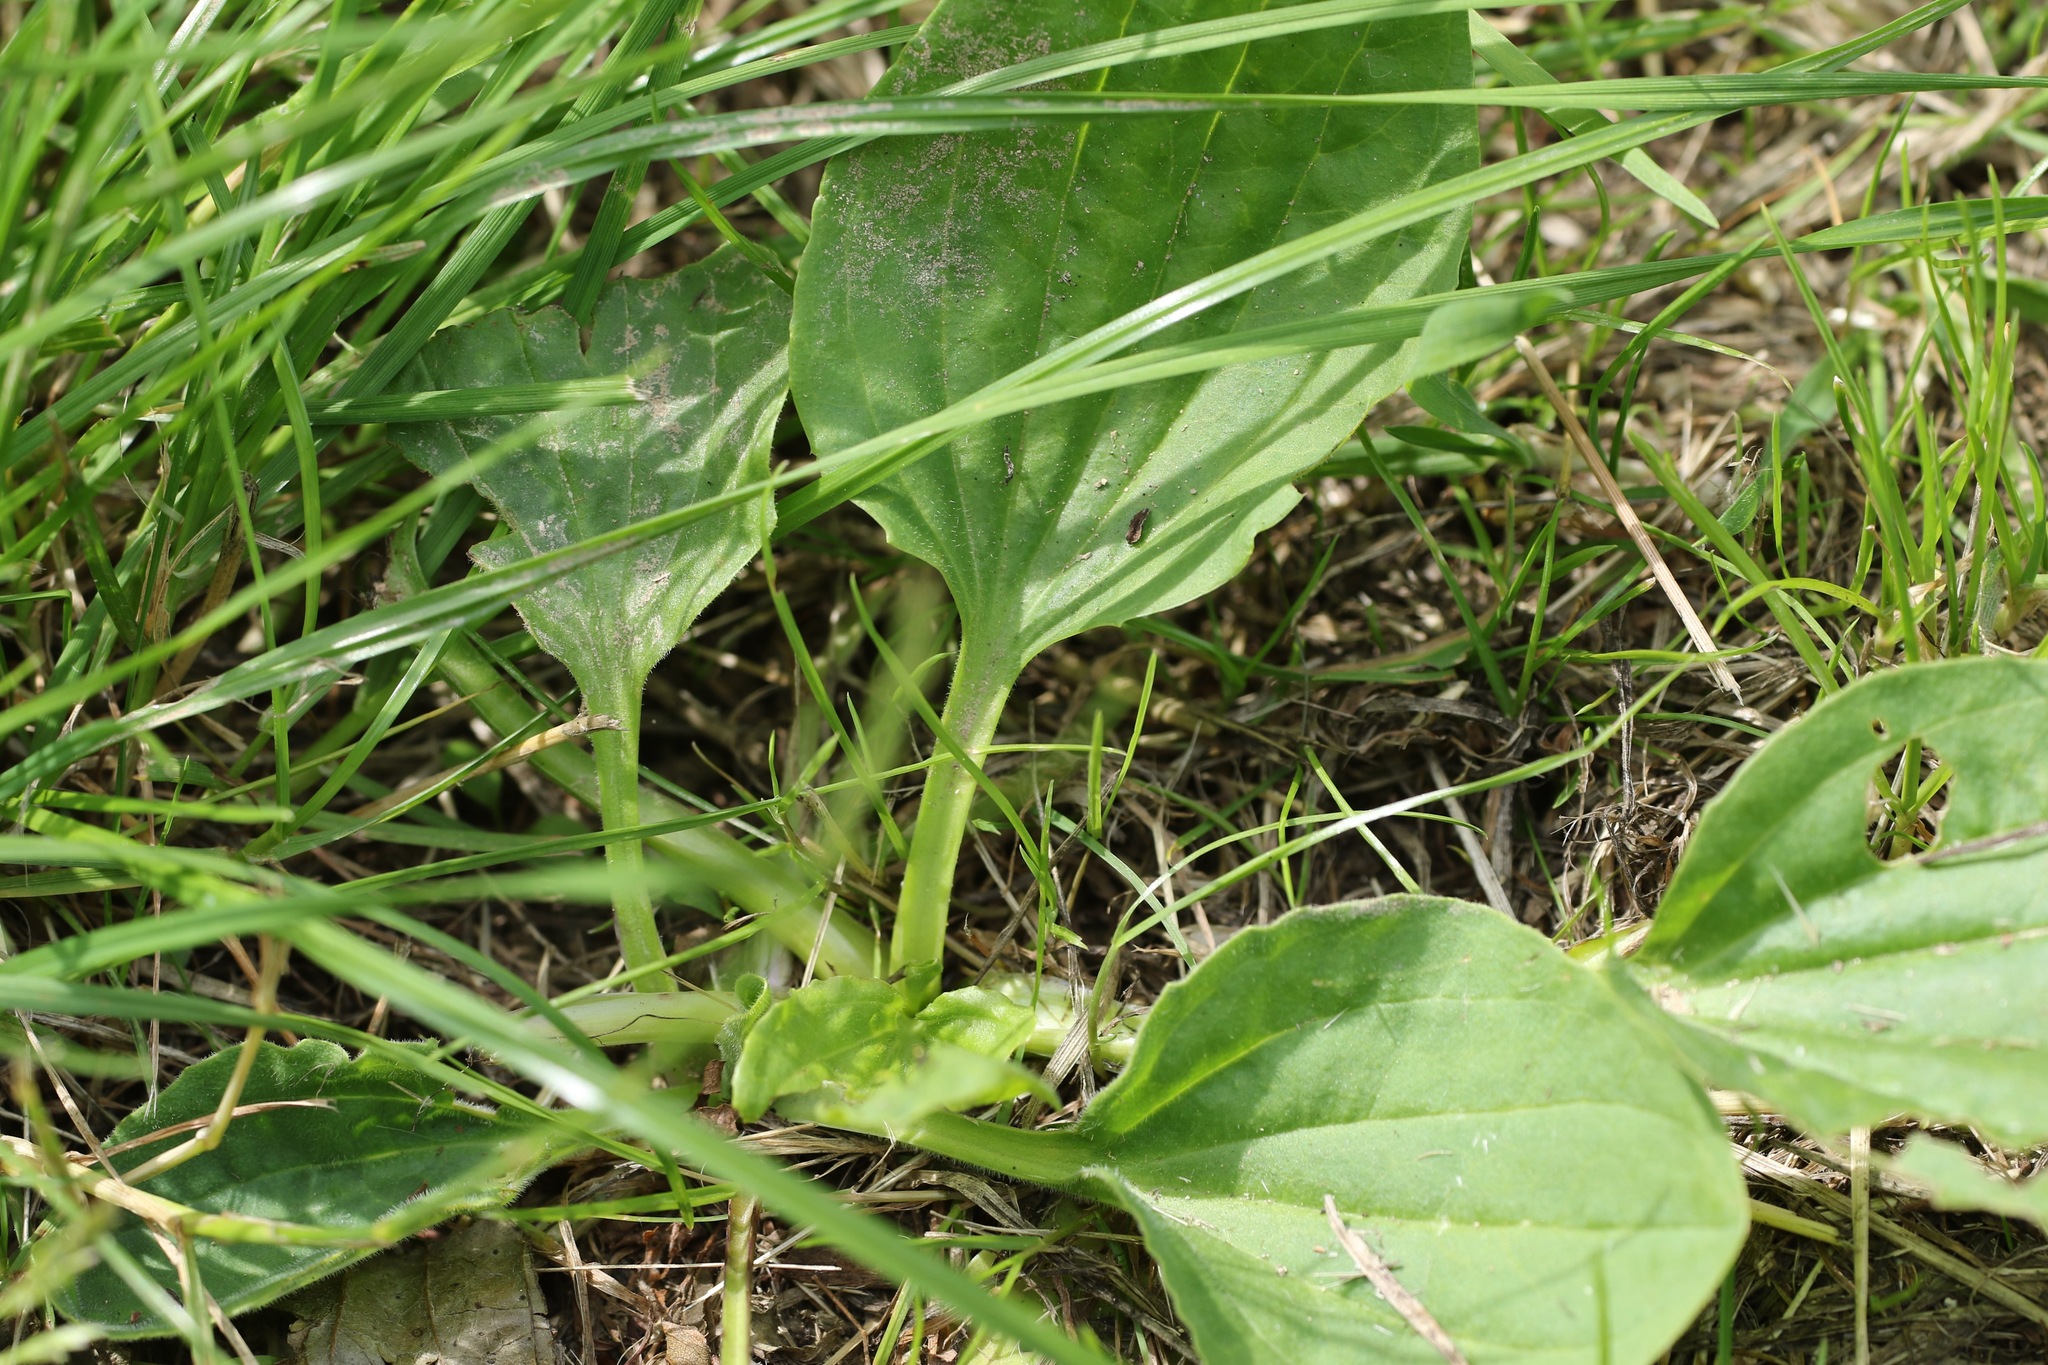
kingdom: Plantae
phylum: Tracheophyta
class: Magnoliopsida
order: Lamiales
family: Plantaginaceae
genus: Plantago
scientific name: Plantago major
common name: Common plantain
